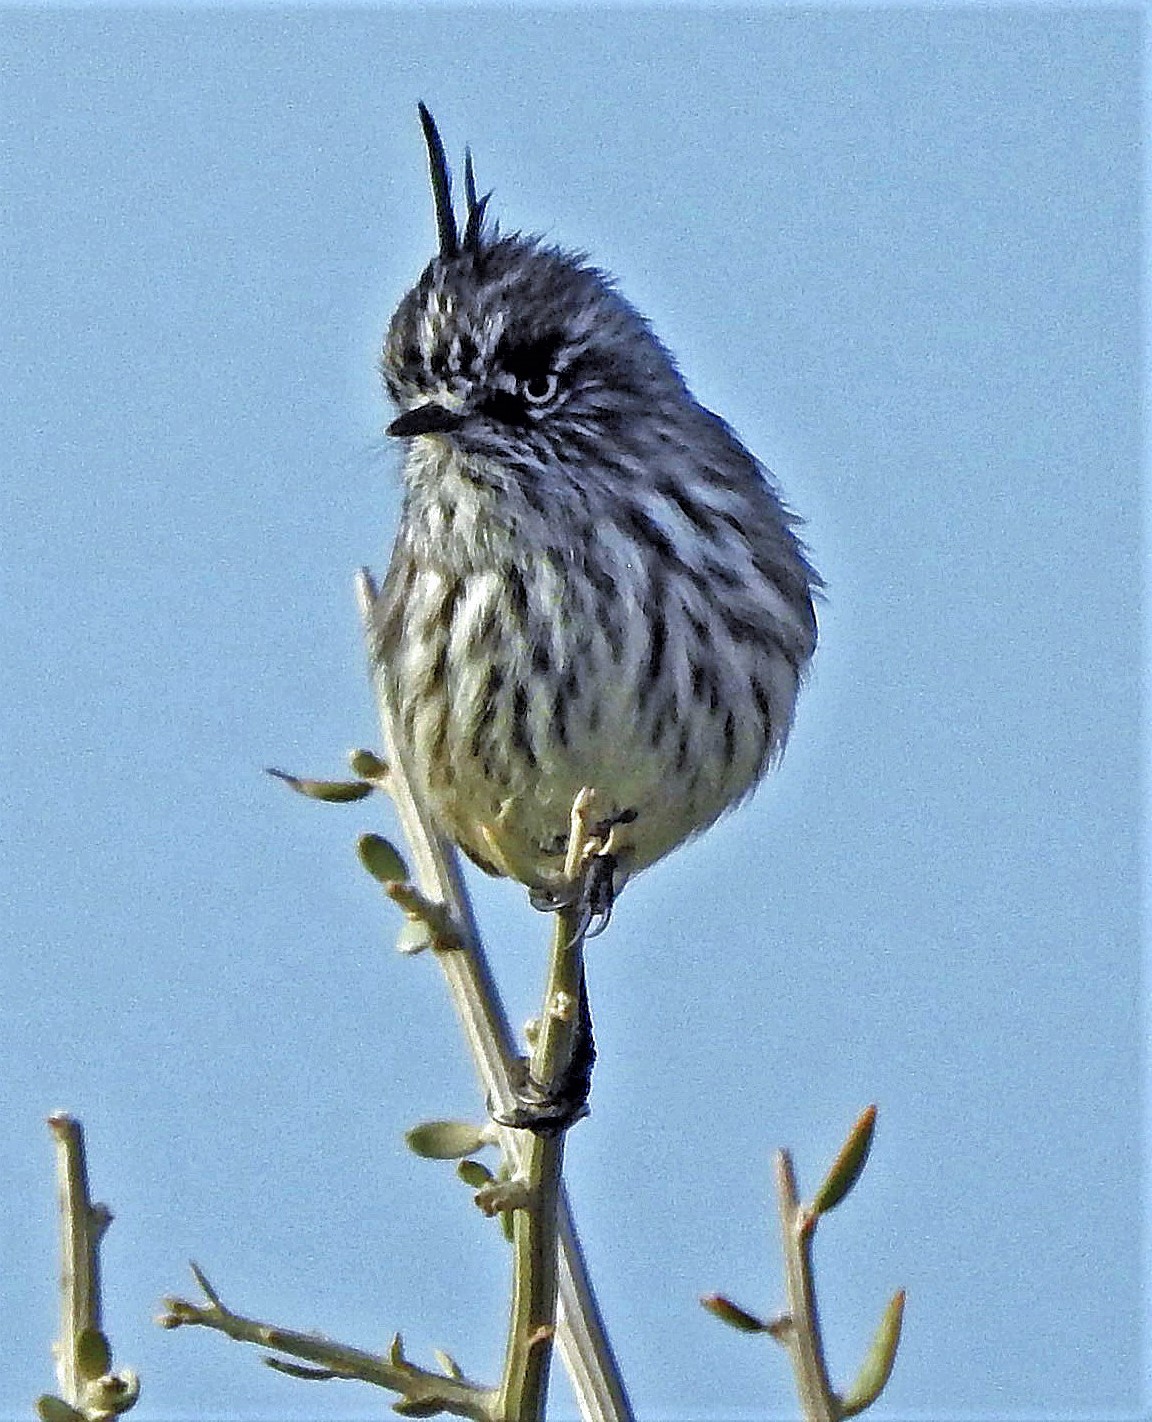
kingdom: Animalia
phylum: Chordata
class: Aves
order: Passeriformes
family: Tyrannidae
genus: Anairetes
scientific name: Anairetes parulus
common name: Tufted tit-tyrant
